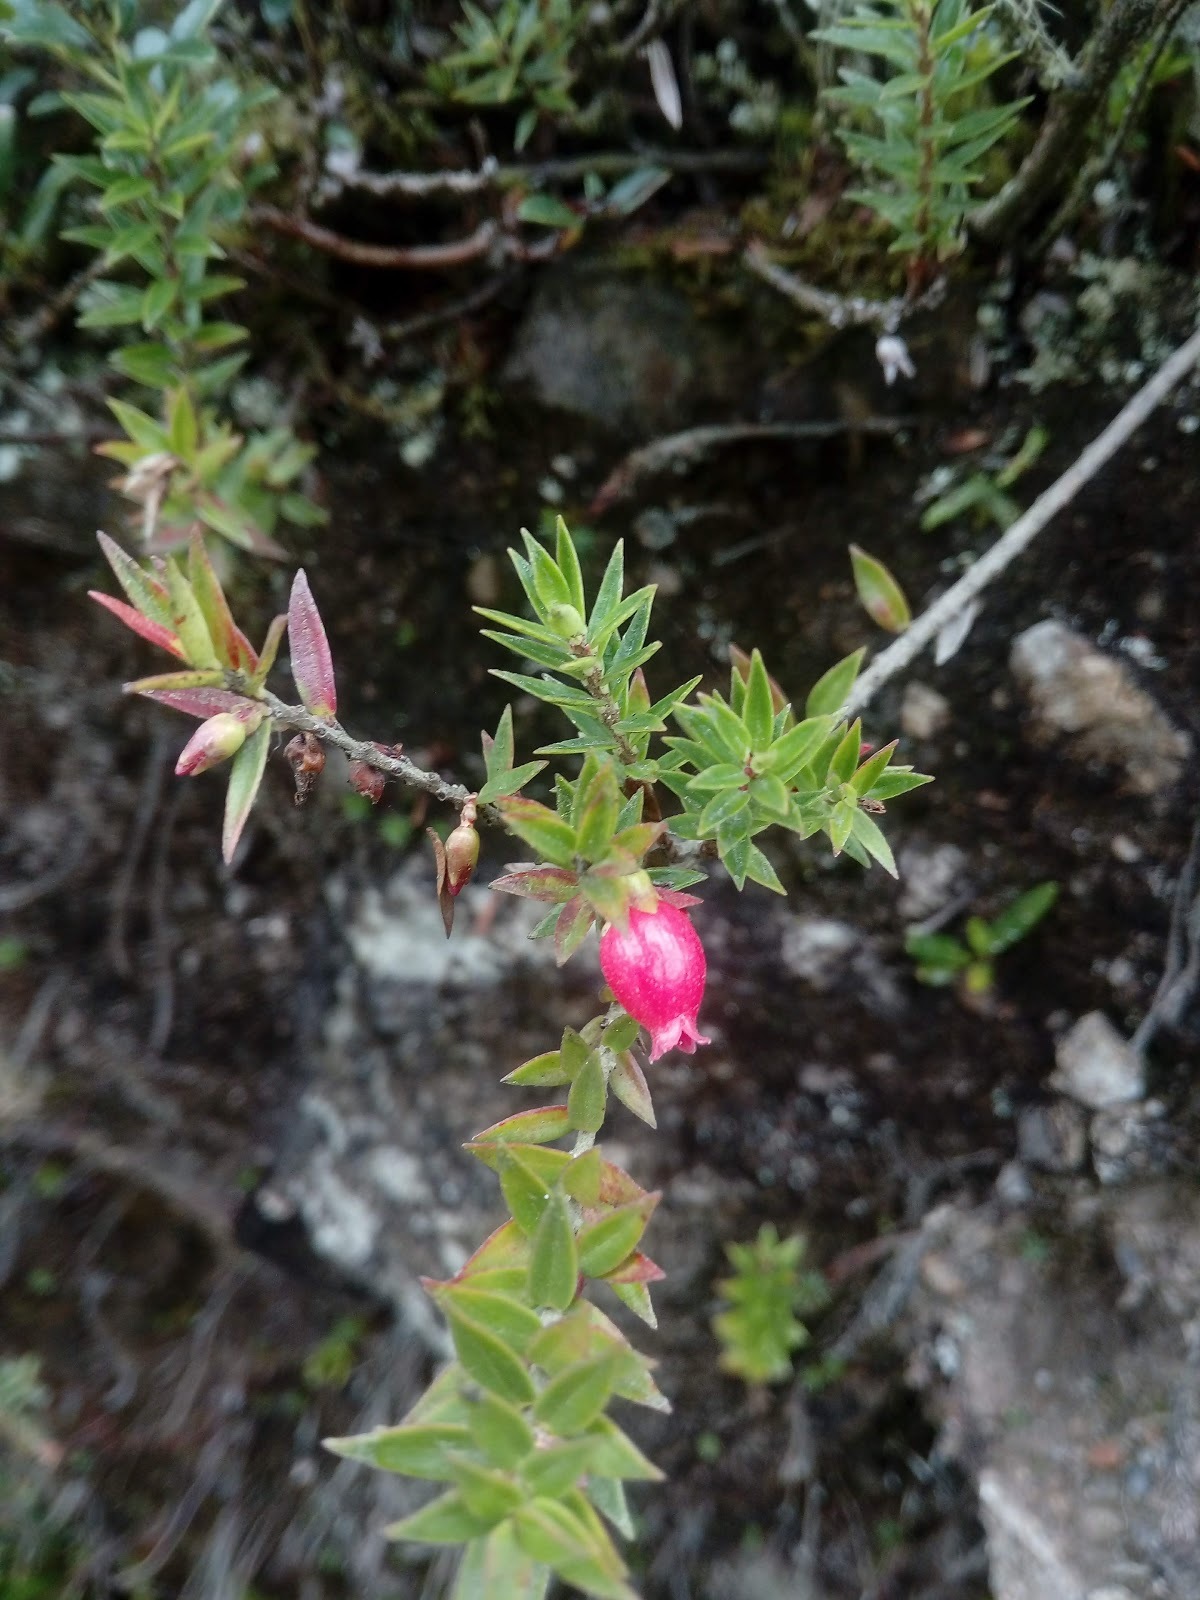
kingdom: Plantae
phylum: Tracheophyta
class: Magnoliopsida
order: Ericales
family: Ericaceae
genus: Disterigma
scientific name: Disterigma empetrifolium
